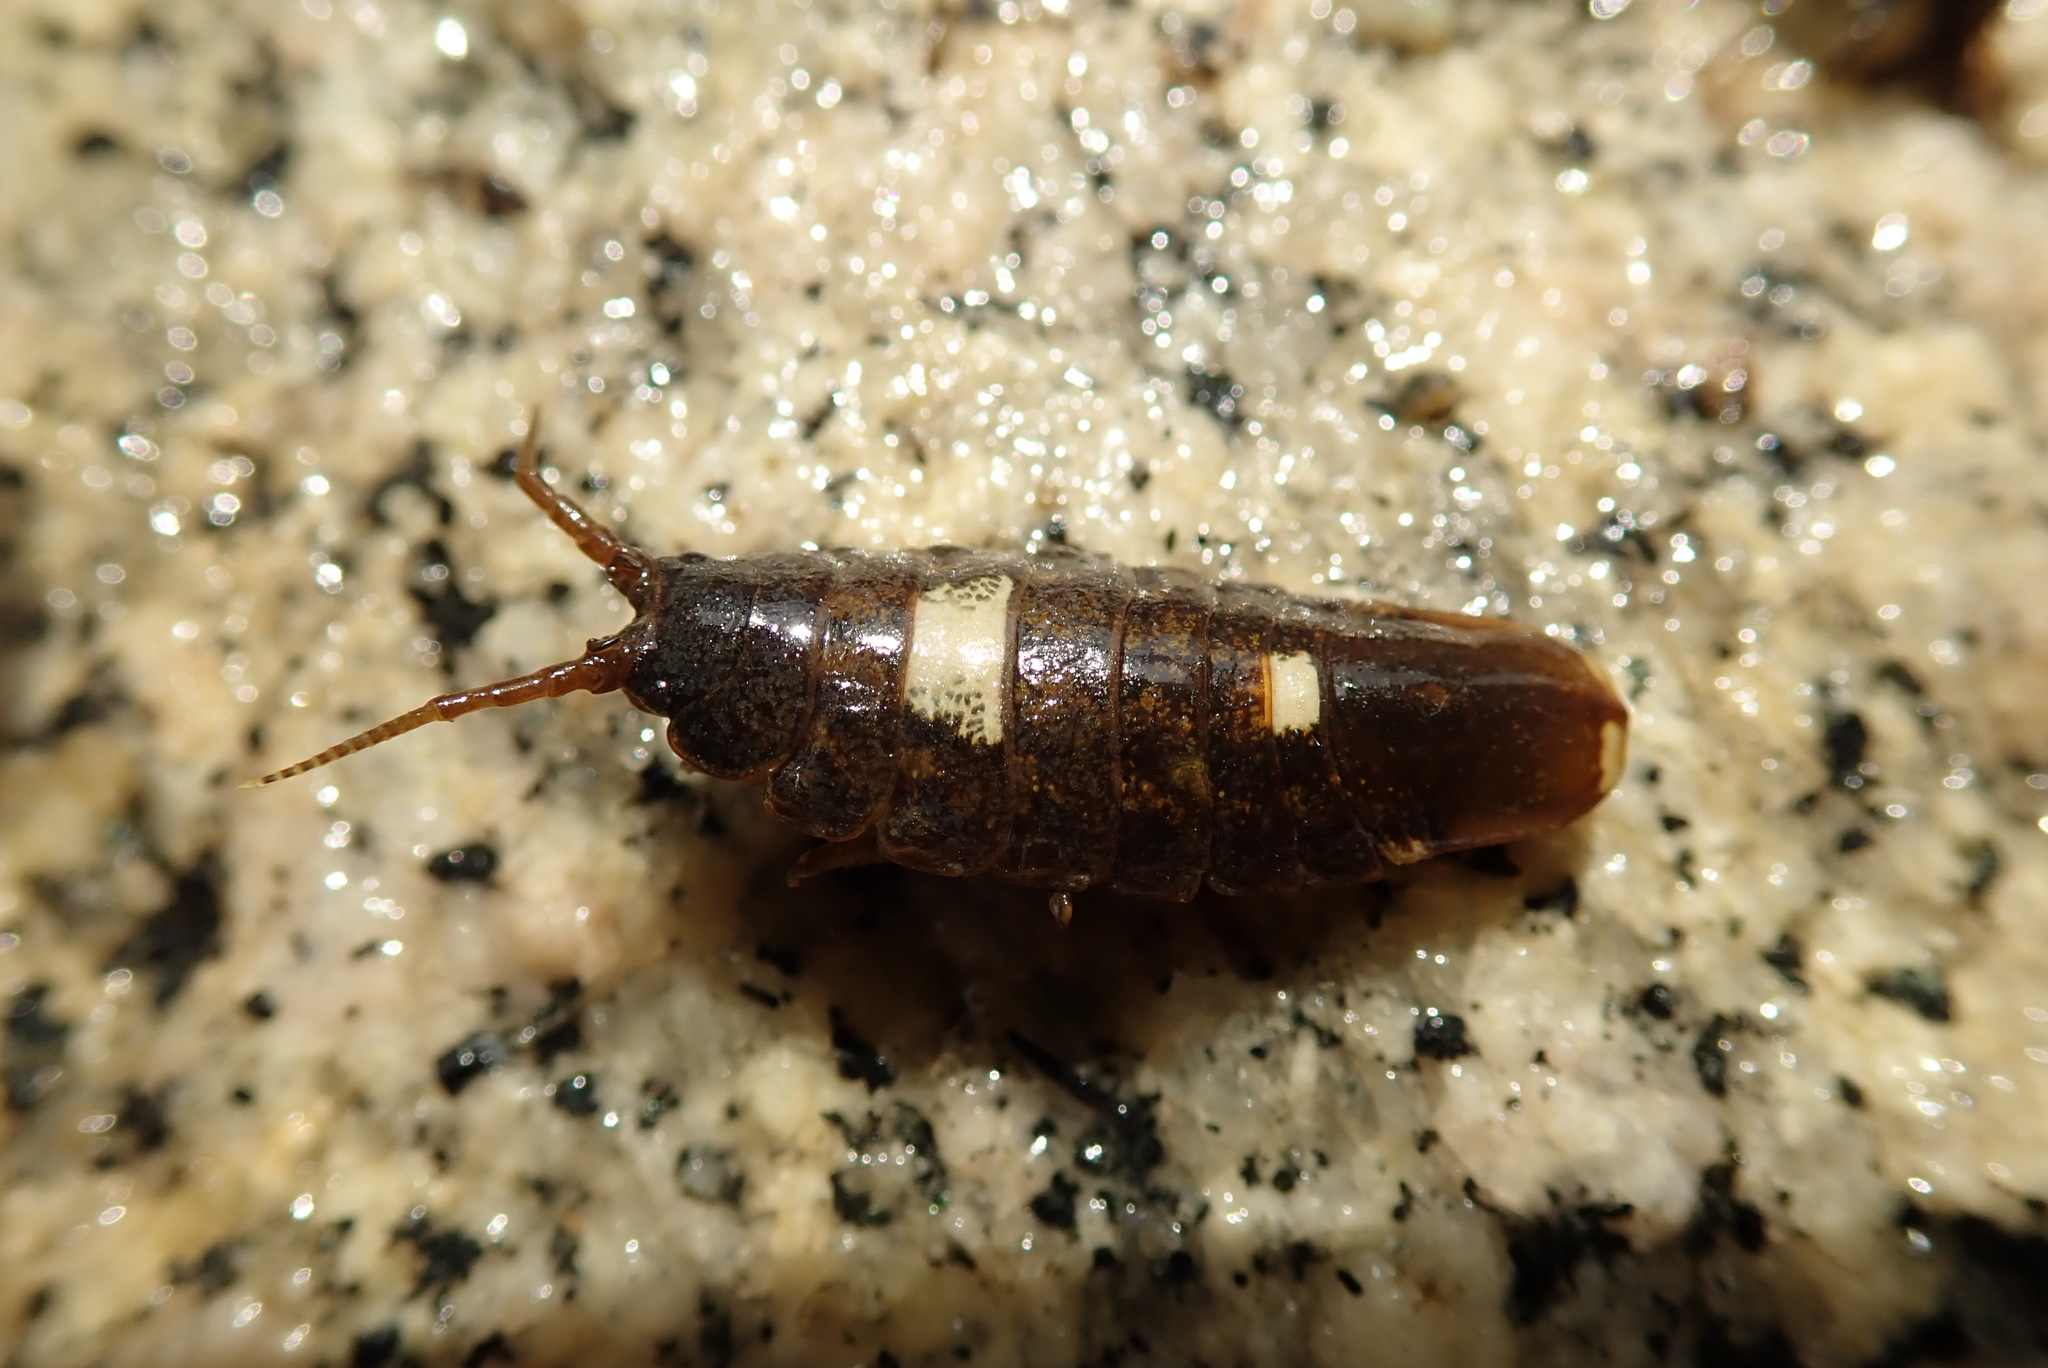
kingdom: Animalia
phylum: Arthropoda
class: Malacostraca
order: Isopoda
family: Idoteidae
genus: Pentidotea
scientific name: Pentidotea wosnesenskii
